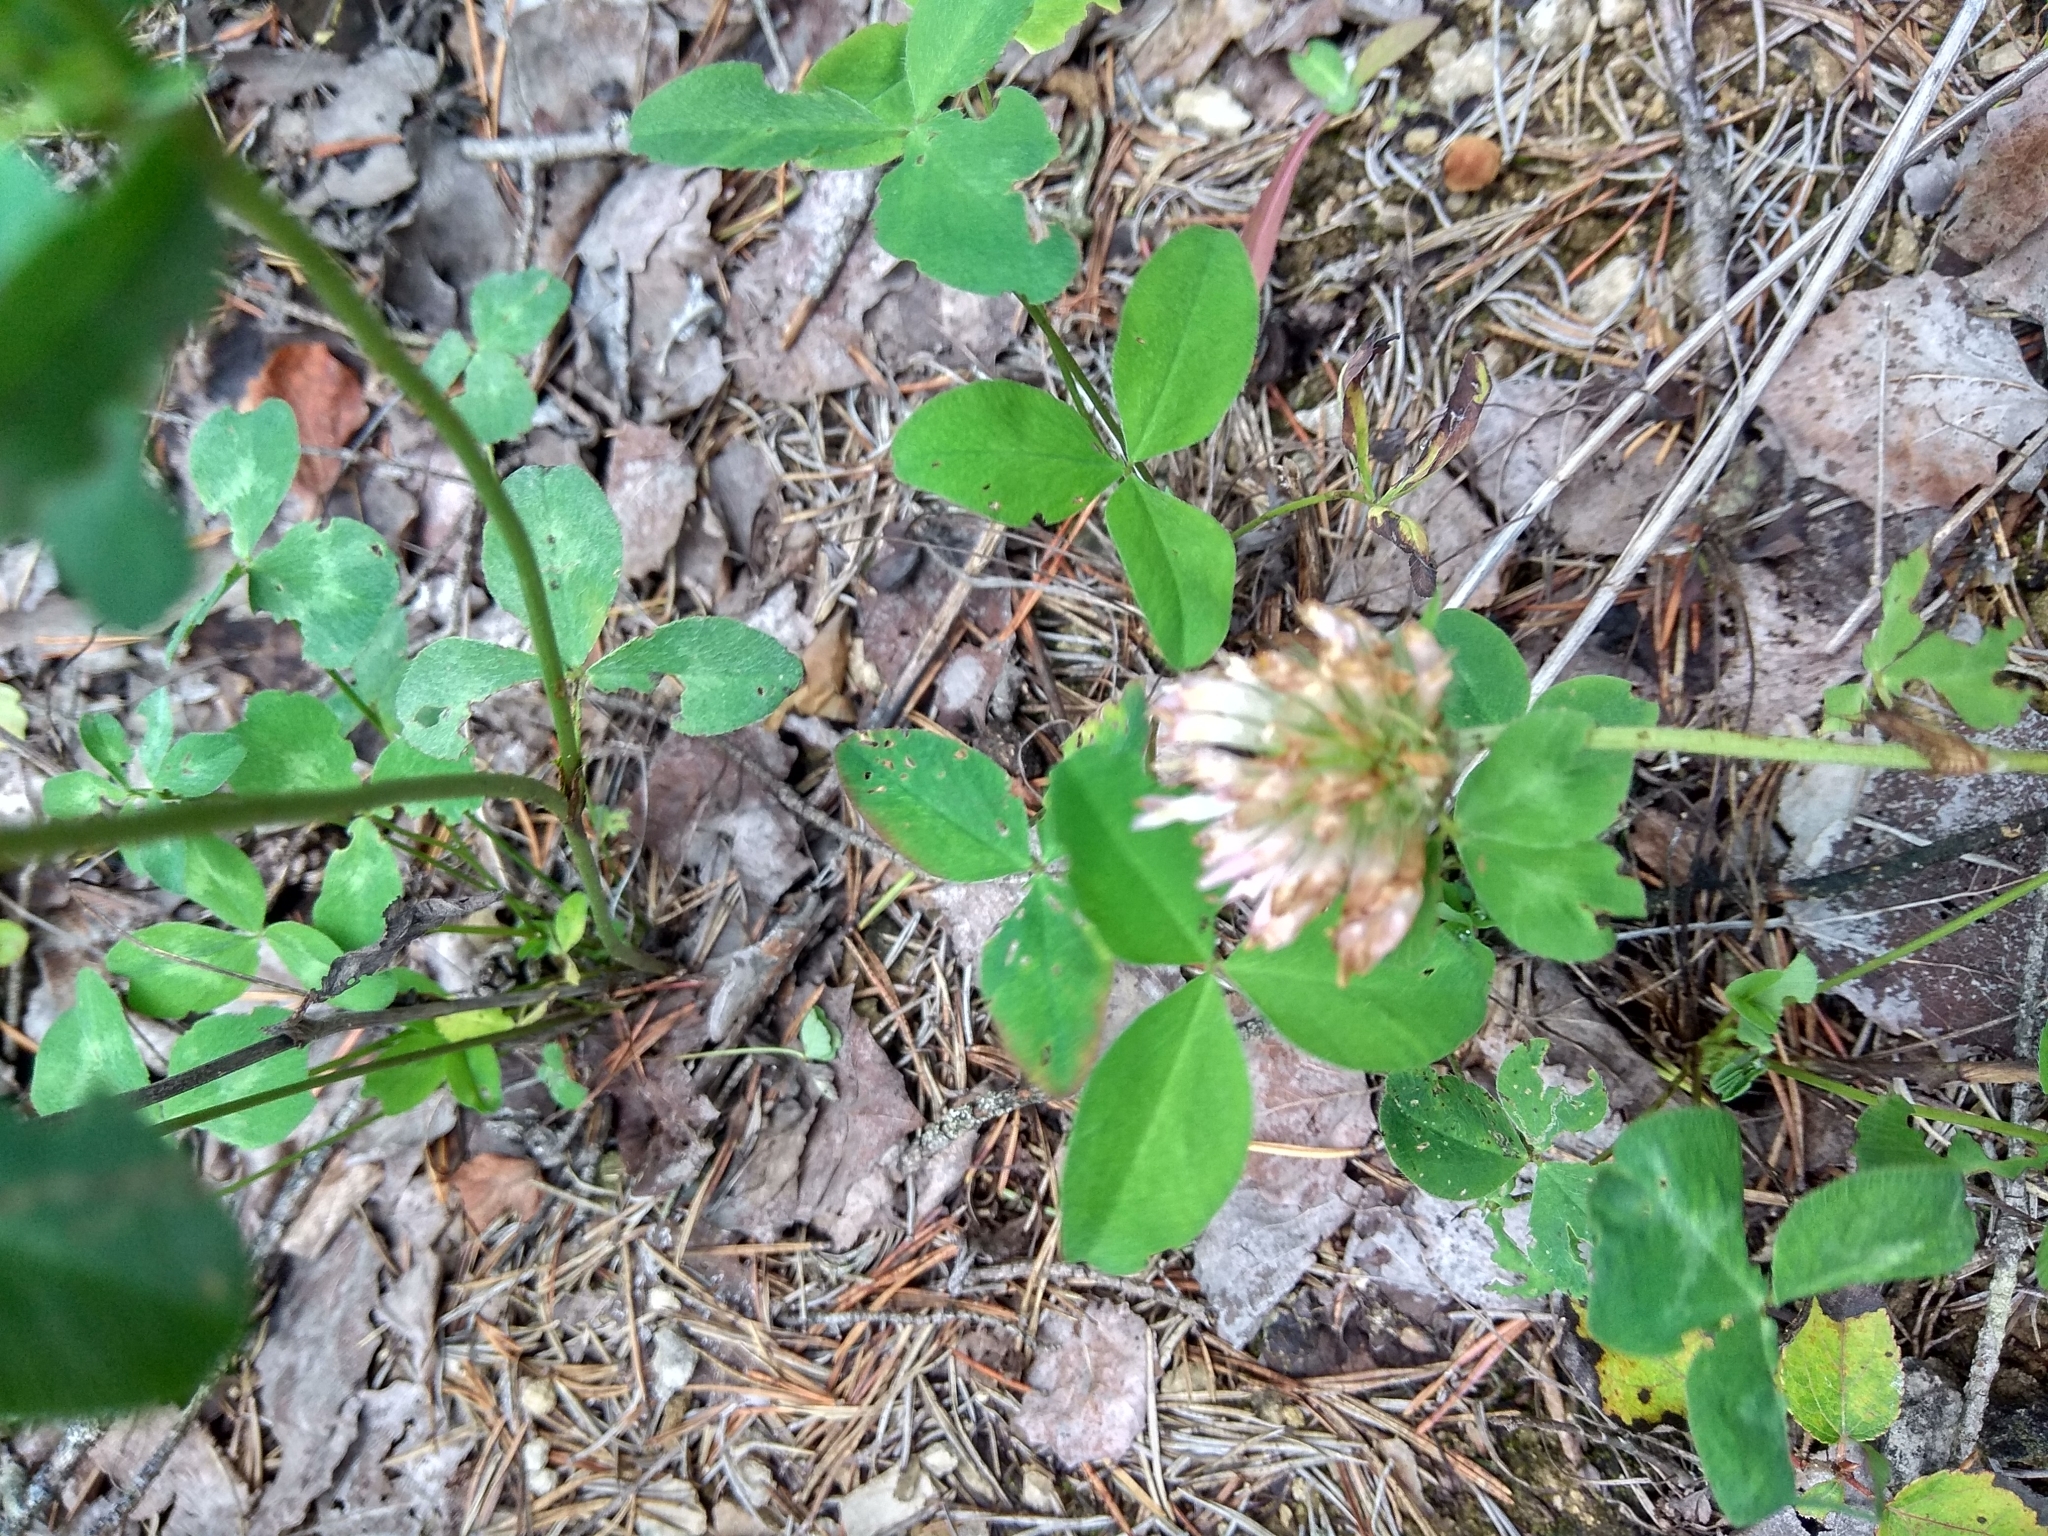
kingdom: Plantae
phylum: Tracheophyta
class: Magnoliopsida
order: Fabales
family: Fabaceae
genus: Trifolium
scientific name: Trifolium pratense
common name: Red clover
